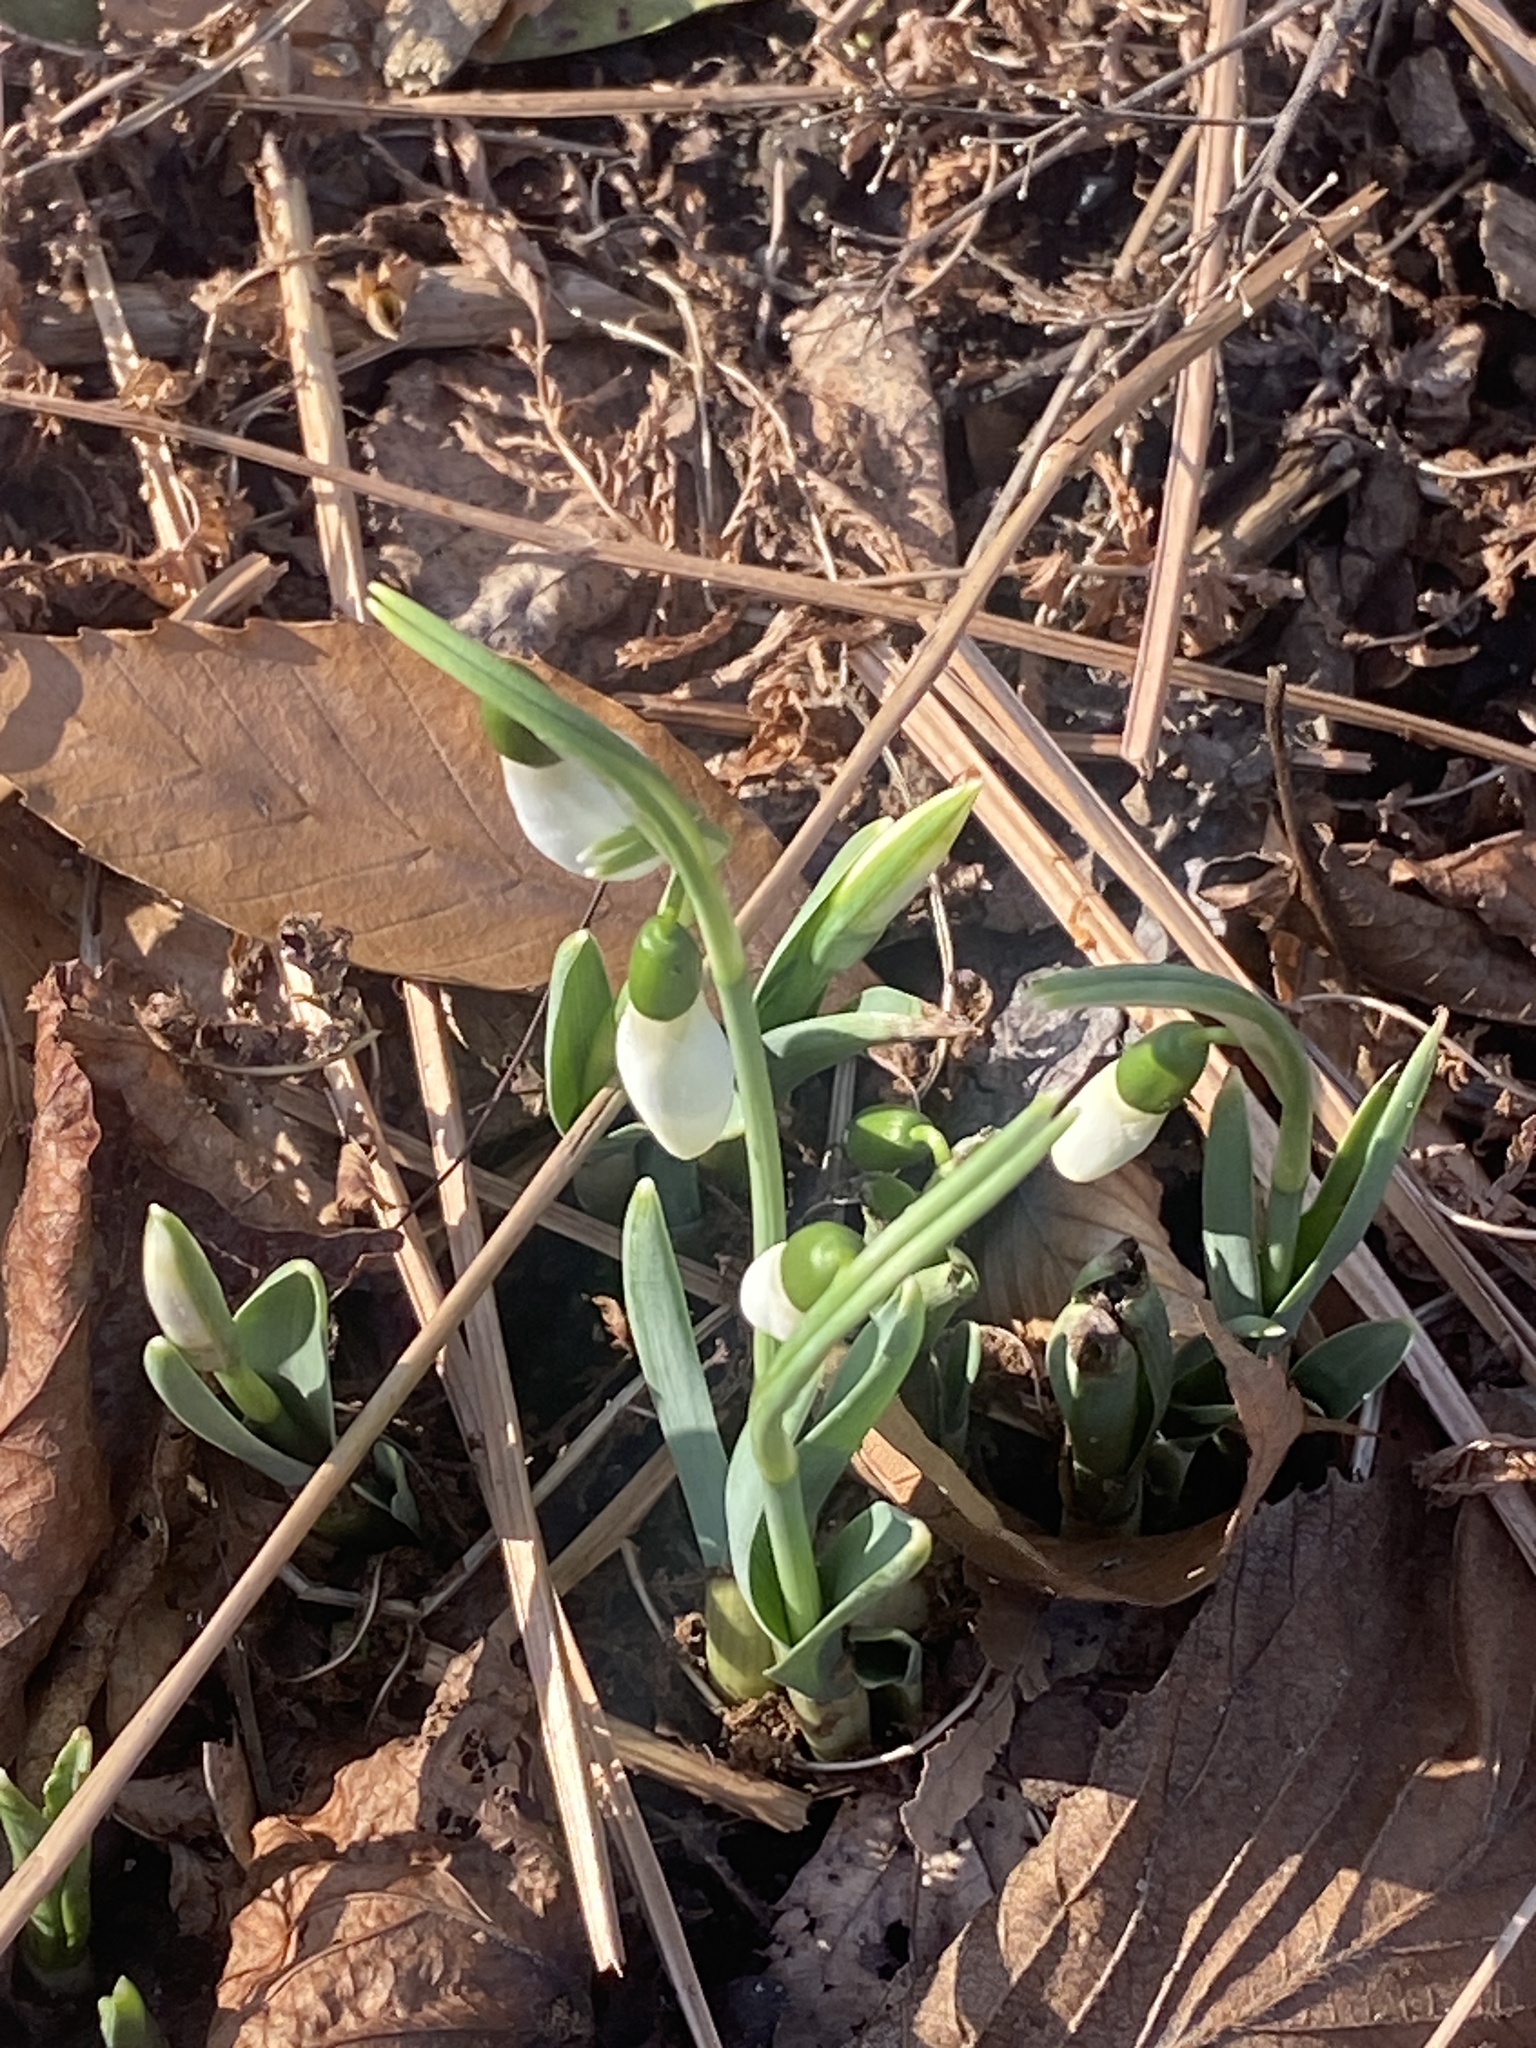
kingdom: Plantae
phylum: Tracheophyta
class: Liliopsida
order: Asparagales
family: Amaryllidaceae
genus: Galanthus
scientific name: Galanthus elwesii
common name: Greater snowdrop
